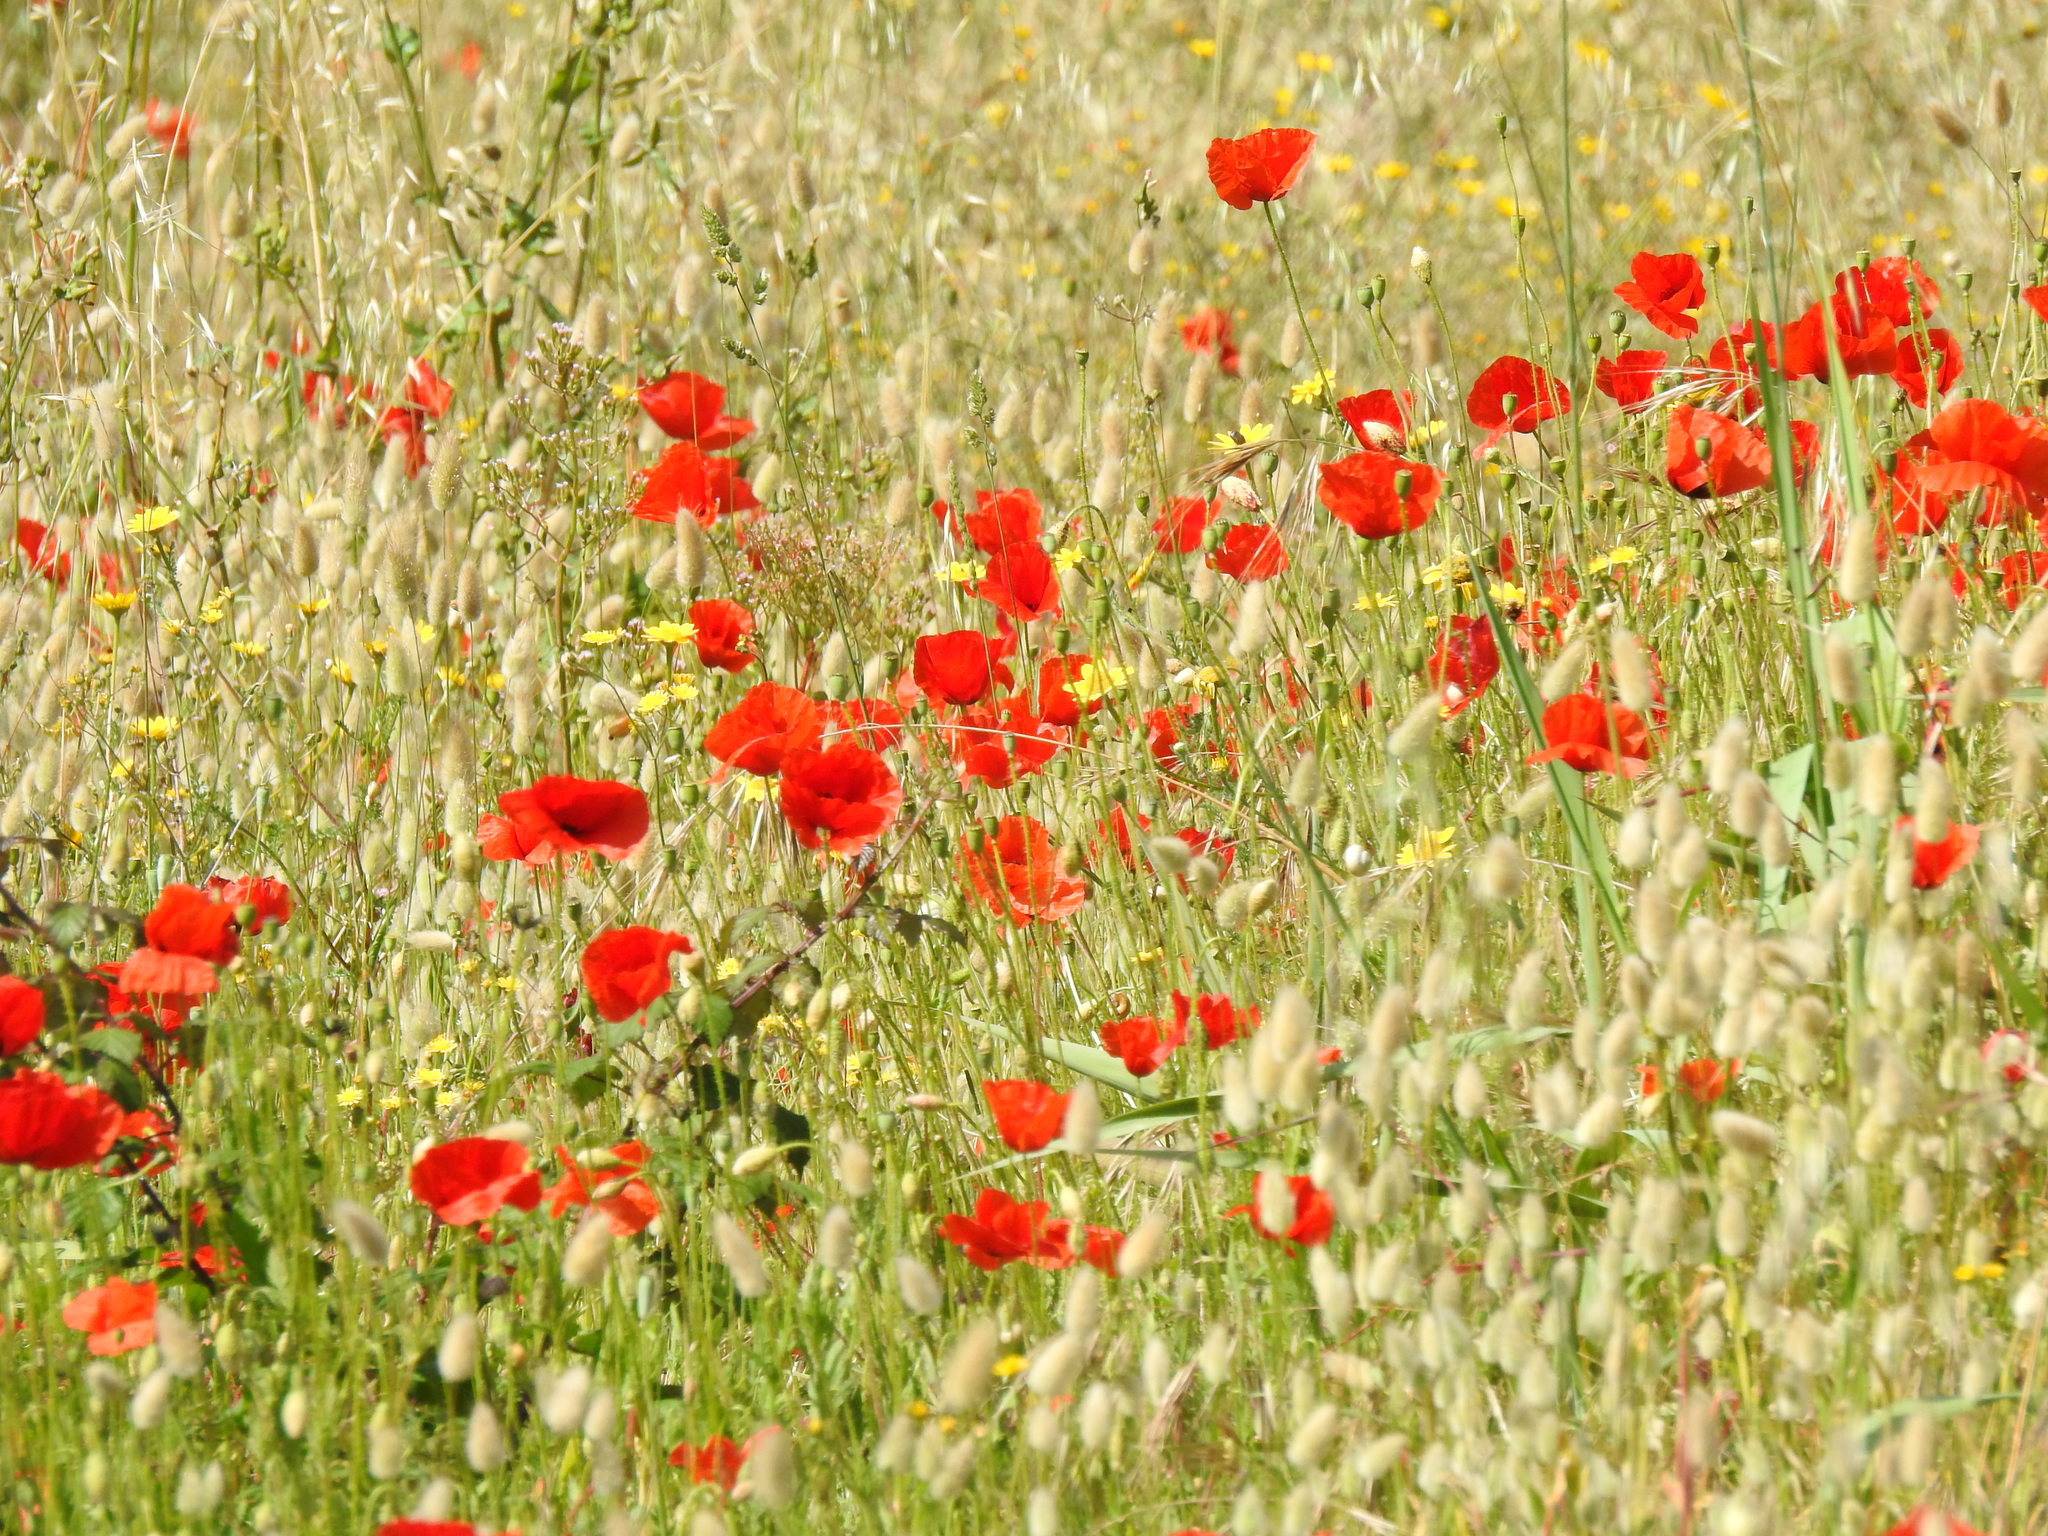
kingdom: Plantae
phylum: Tracheophyta
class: Magnoliopsida
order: Ranunculales
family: Papaveraceae
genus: Papaver
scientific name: Papaver rhoeas
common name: Corn poppy
